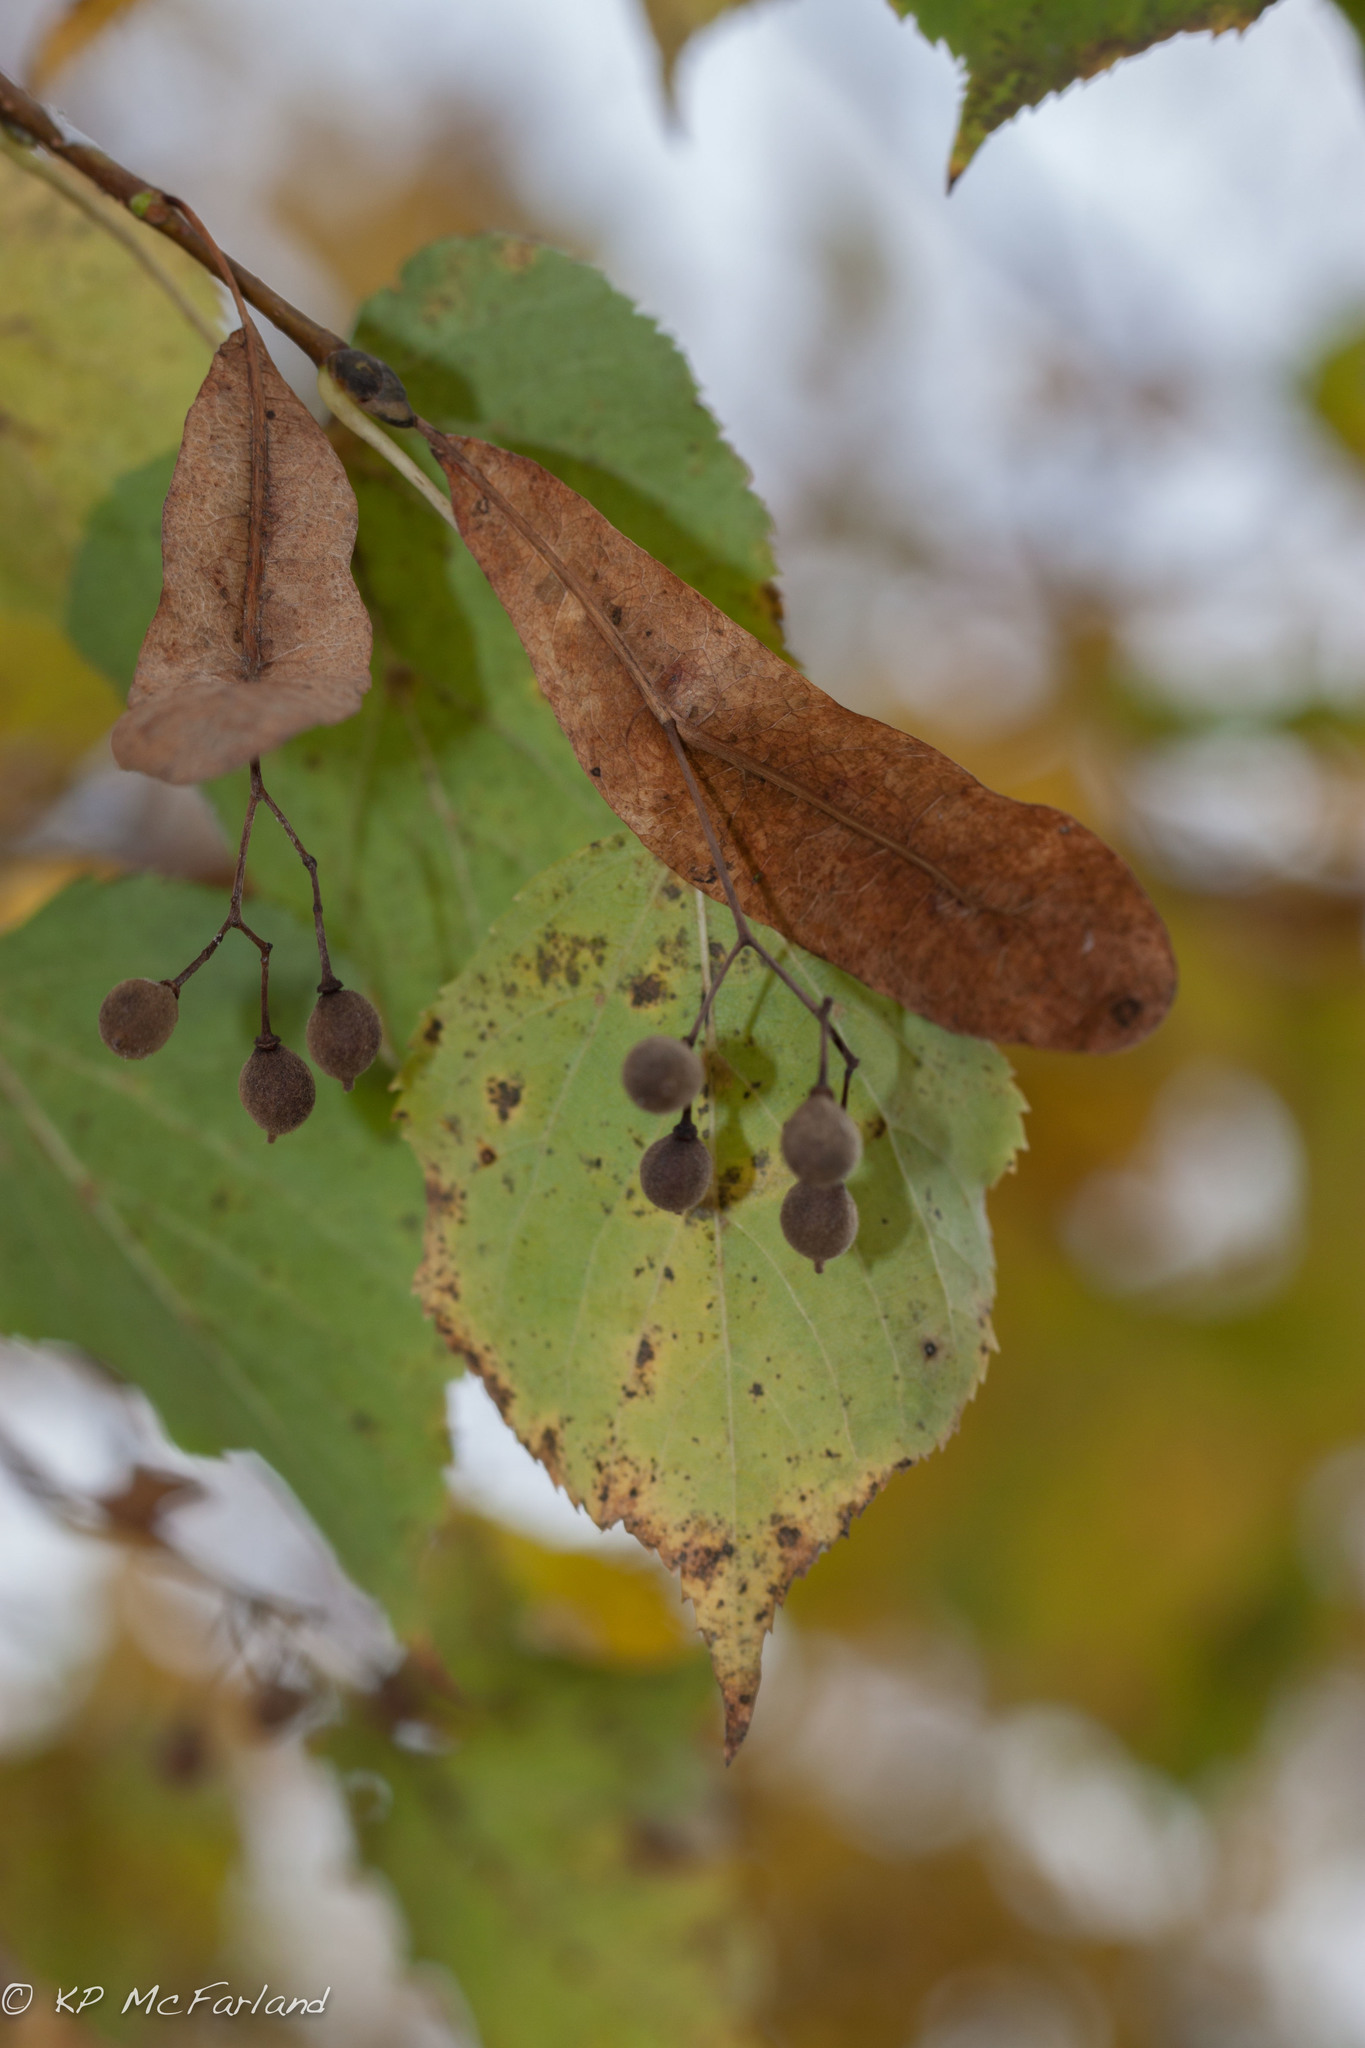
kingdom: Plantae
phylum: Tracheophyta
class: Magnoliopsida
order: Malvales
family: Malvaceae
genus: Tilia
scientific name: Tilia americana
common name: Basswood
